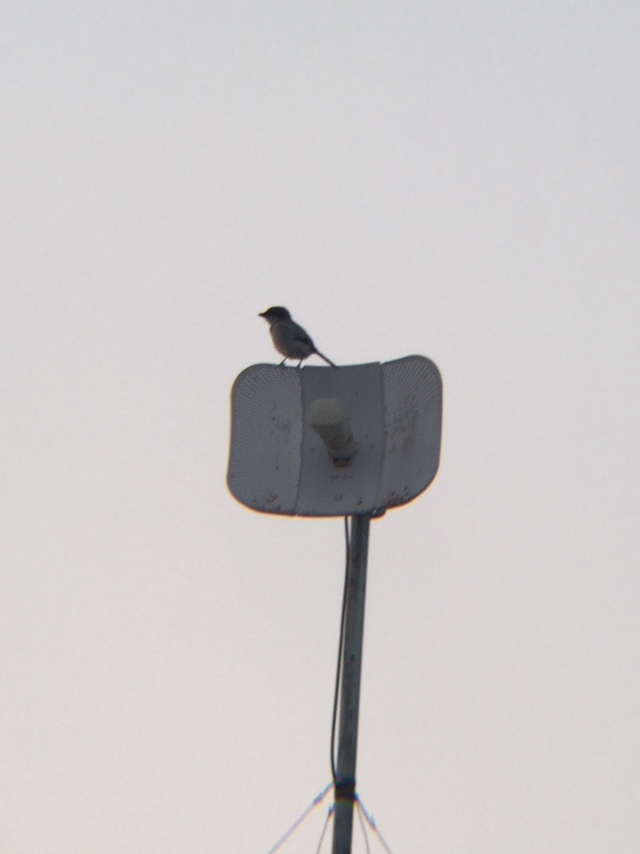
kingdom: Animalia
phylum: Chordata
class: Aves
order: Passeriformes
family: Laniidae
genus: Lanius
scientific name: Lanius ludovicianus
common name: Loggerhead shrike
